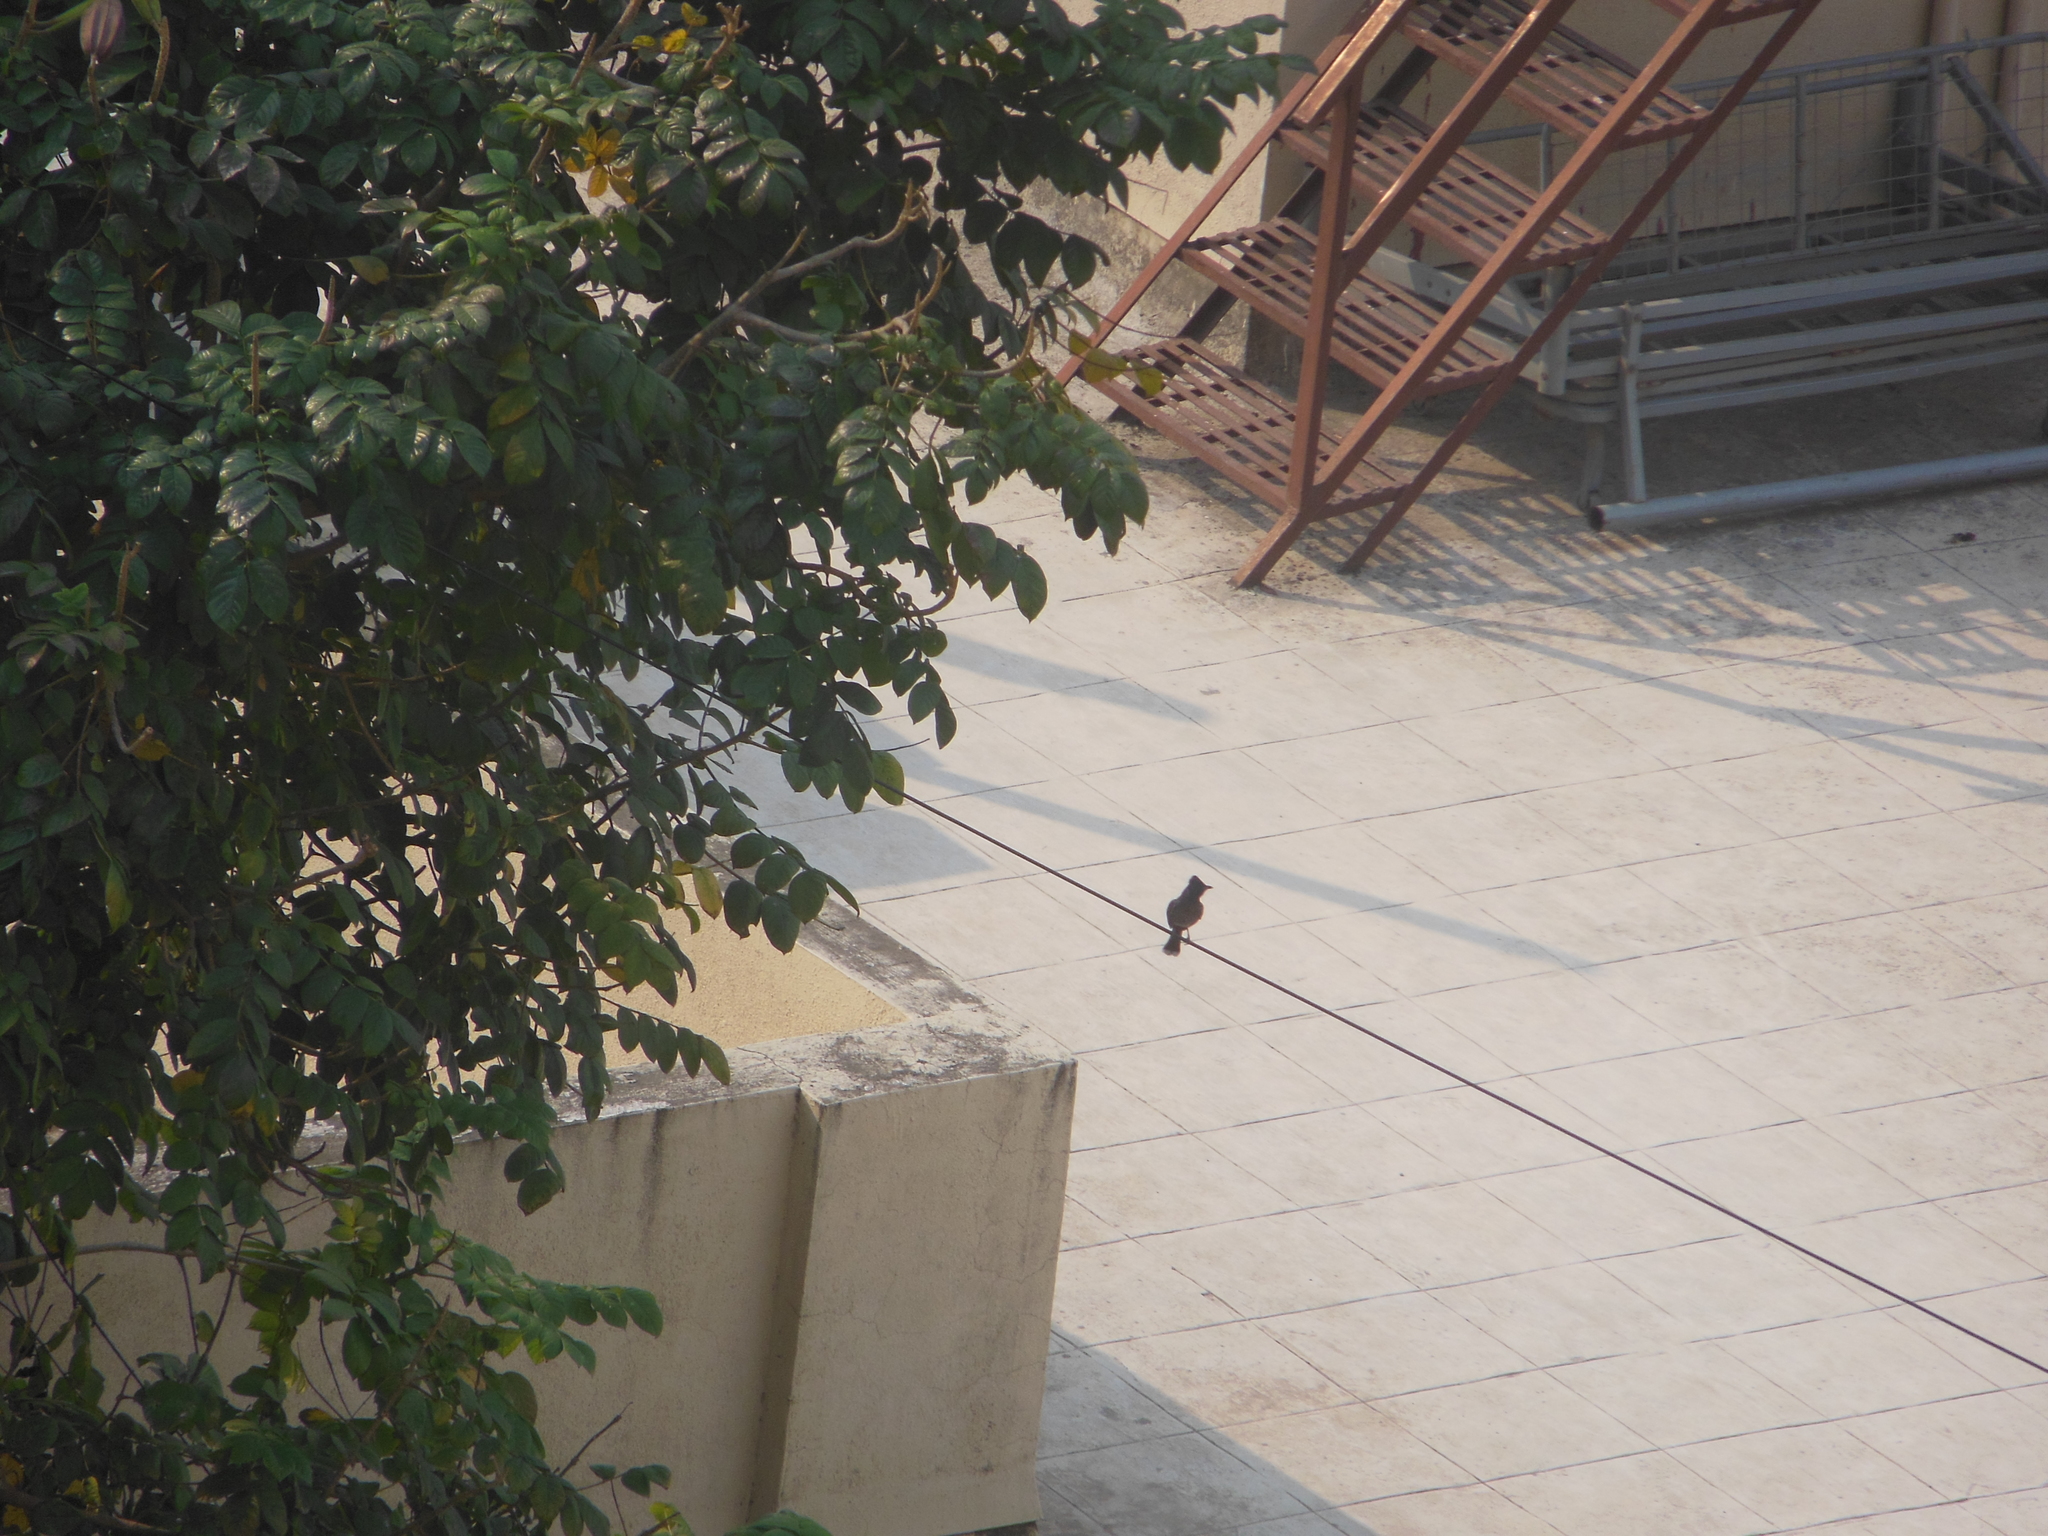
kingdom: Animalia
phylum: Chordata
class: Aves
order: Passeriformes
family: Pycnonotidae
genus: Pycnonotus
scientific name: Pycnonotus cafer
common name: Red-vented bulbul
